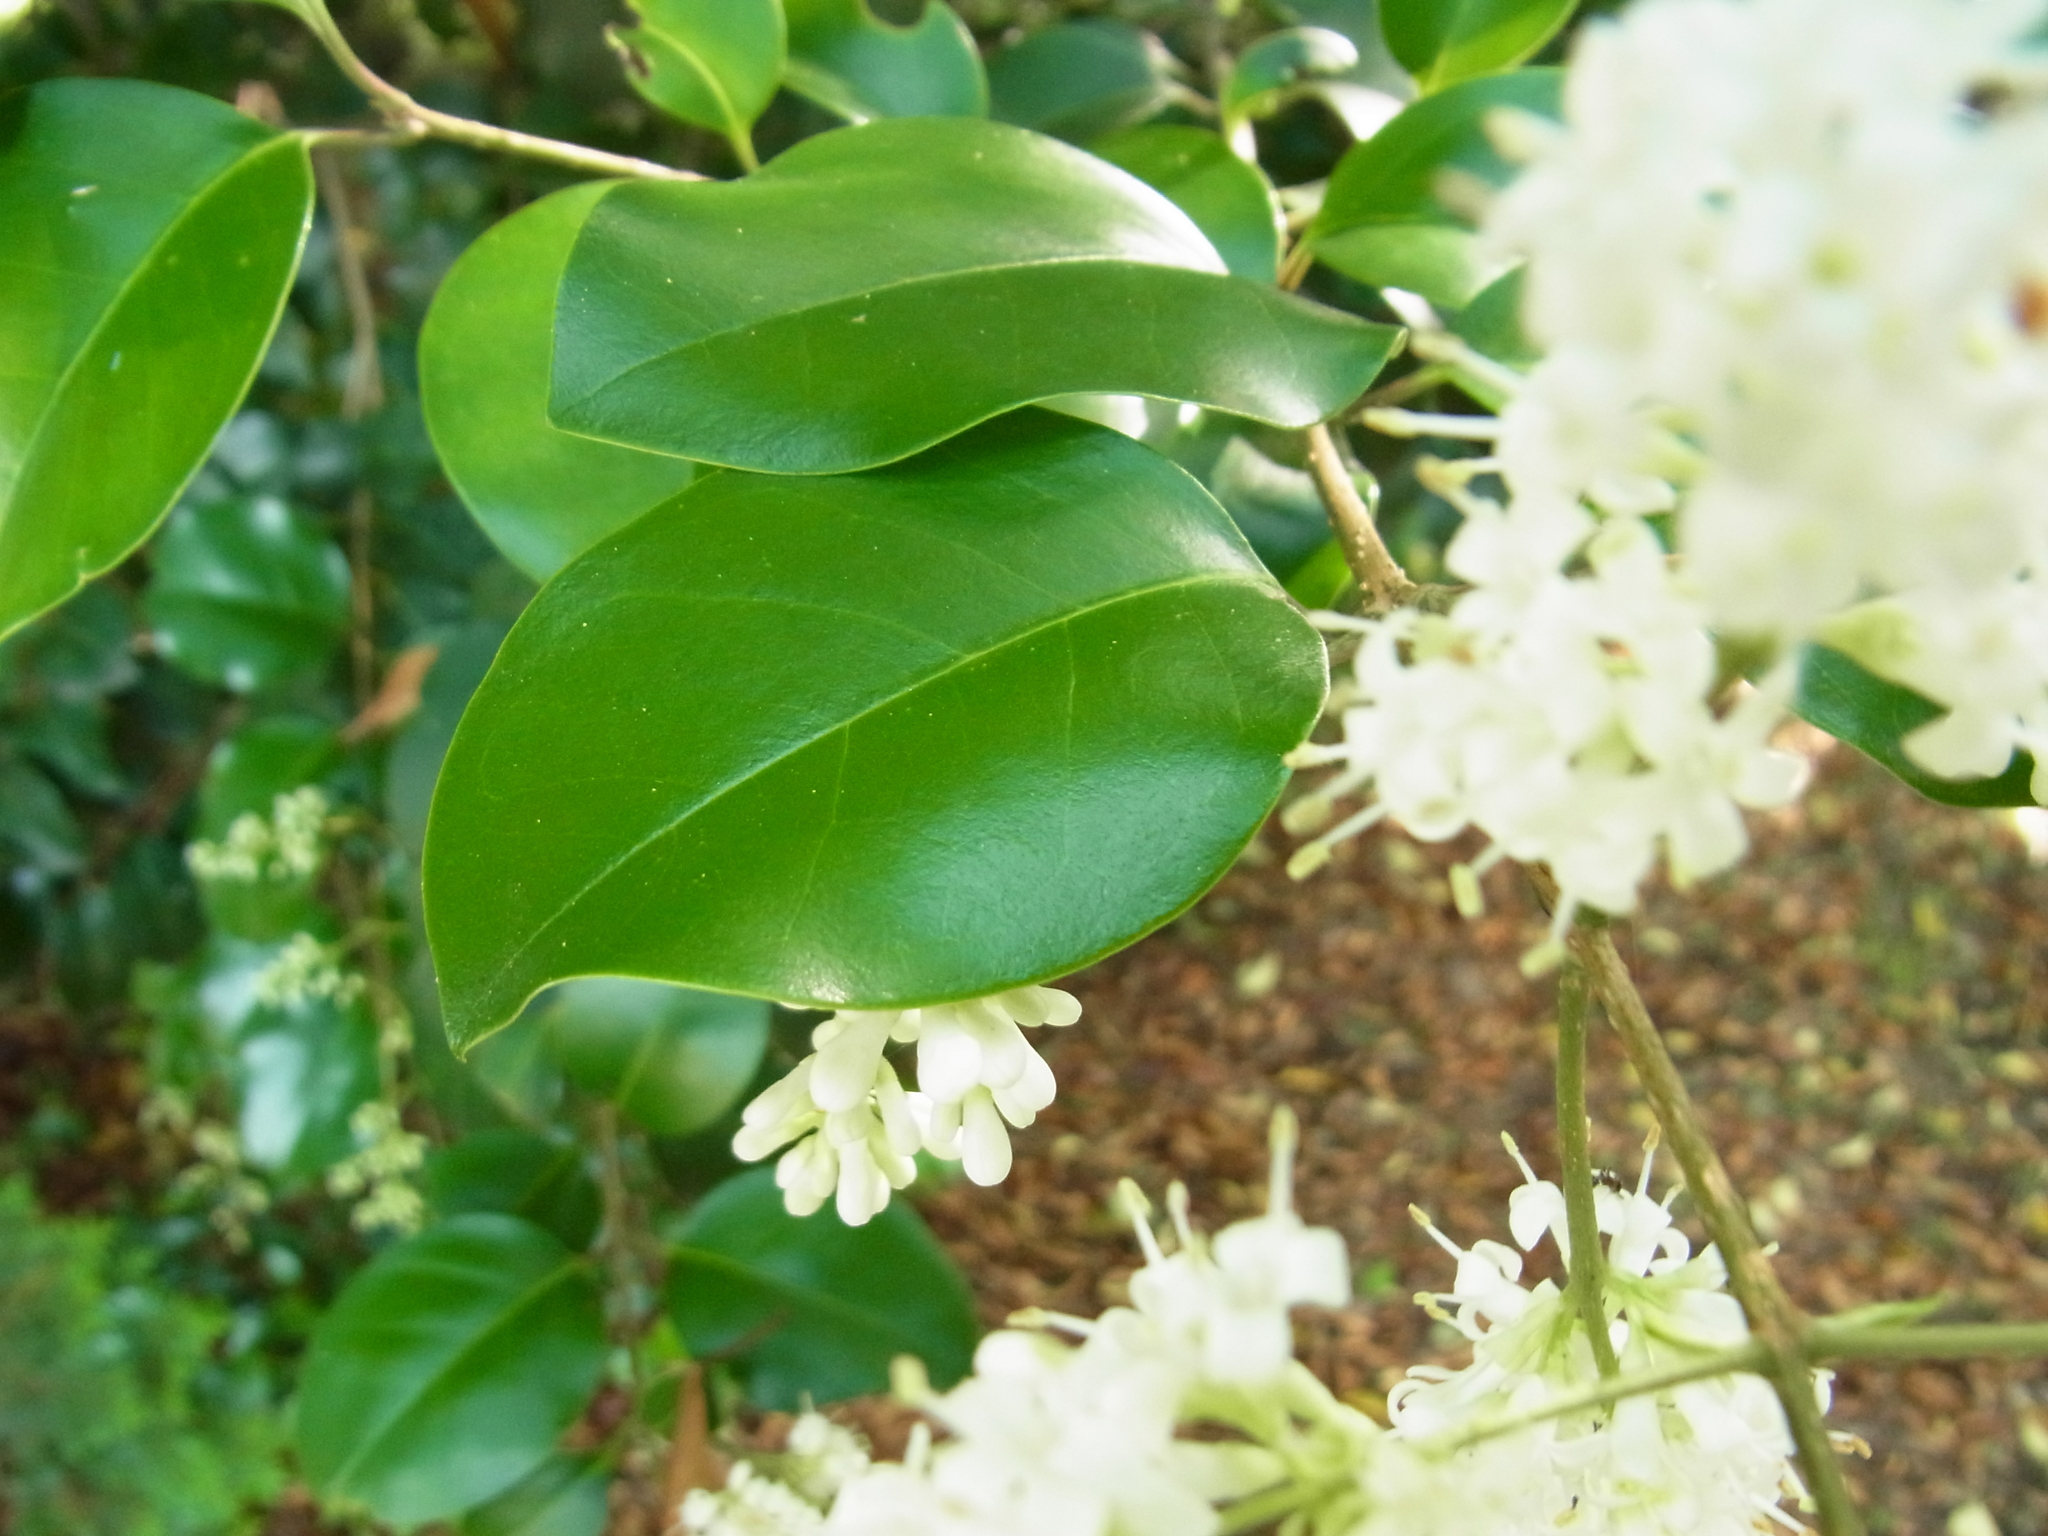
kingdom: Plantae
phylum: Tracheophyta
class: Magnoliopsida
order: Lamiales
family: Oleaceae
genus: Ligustrum
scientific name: Ligustrum japonicum
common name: Japanese privet
